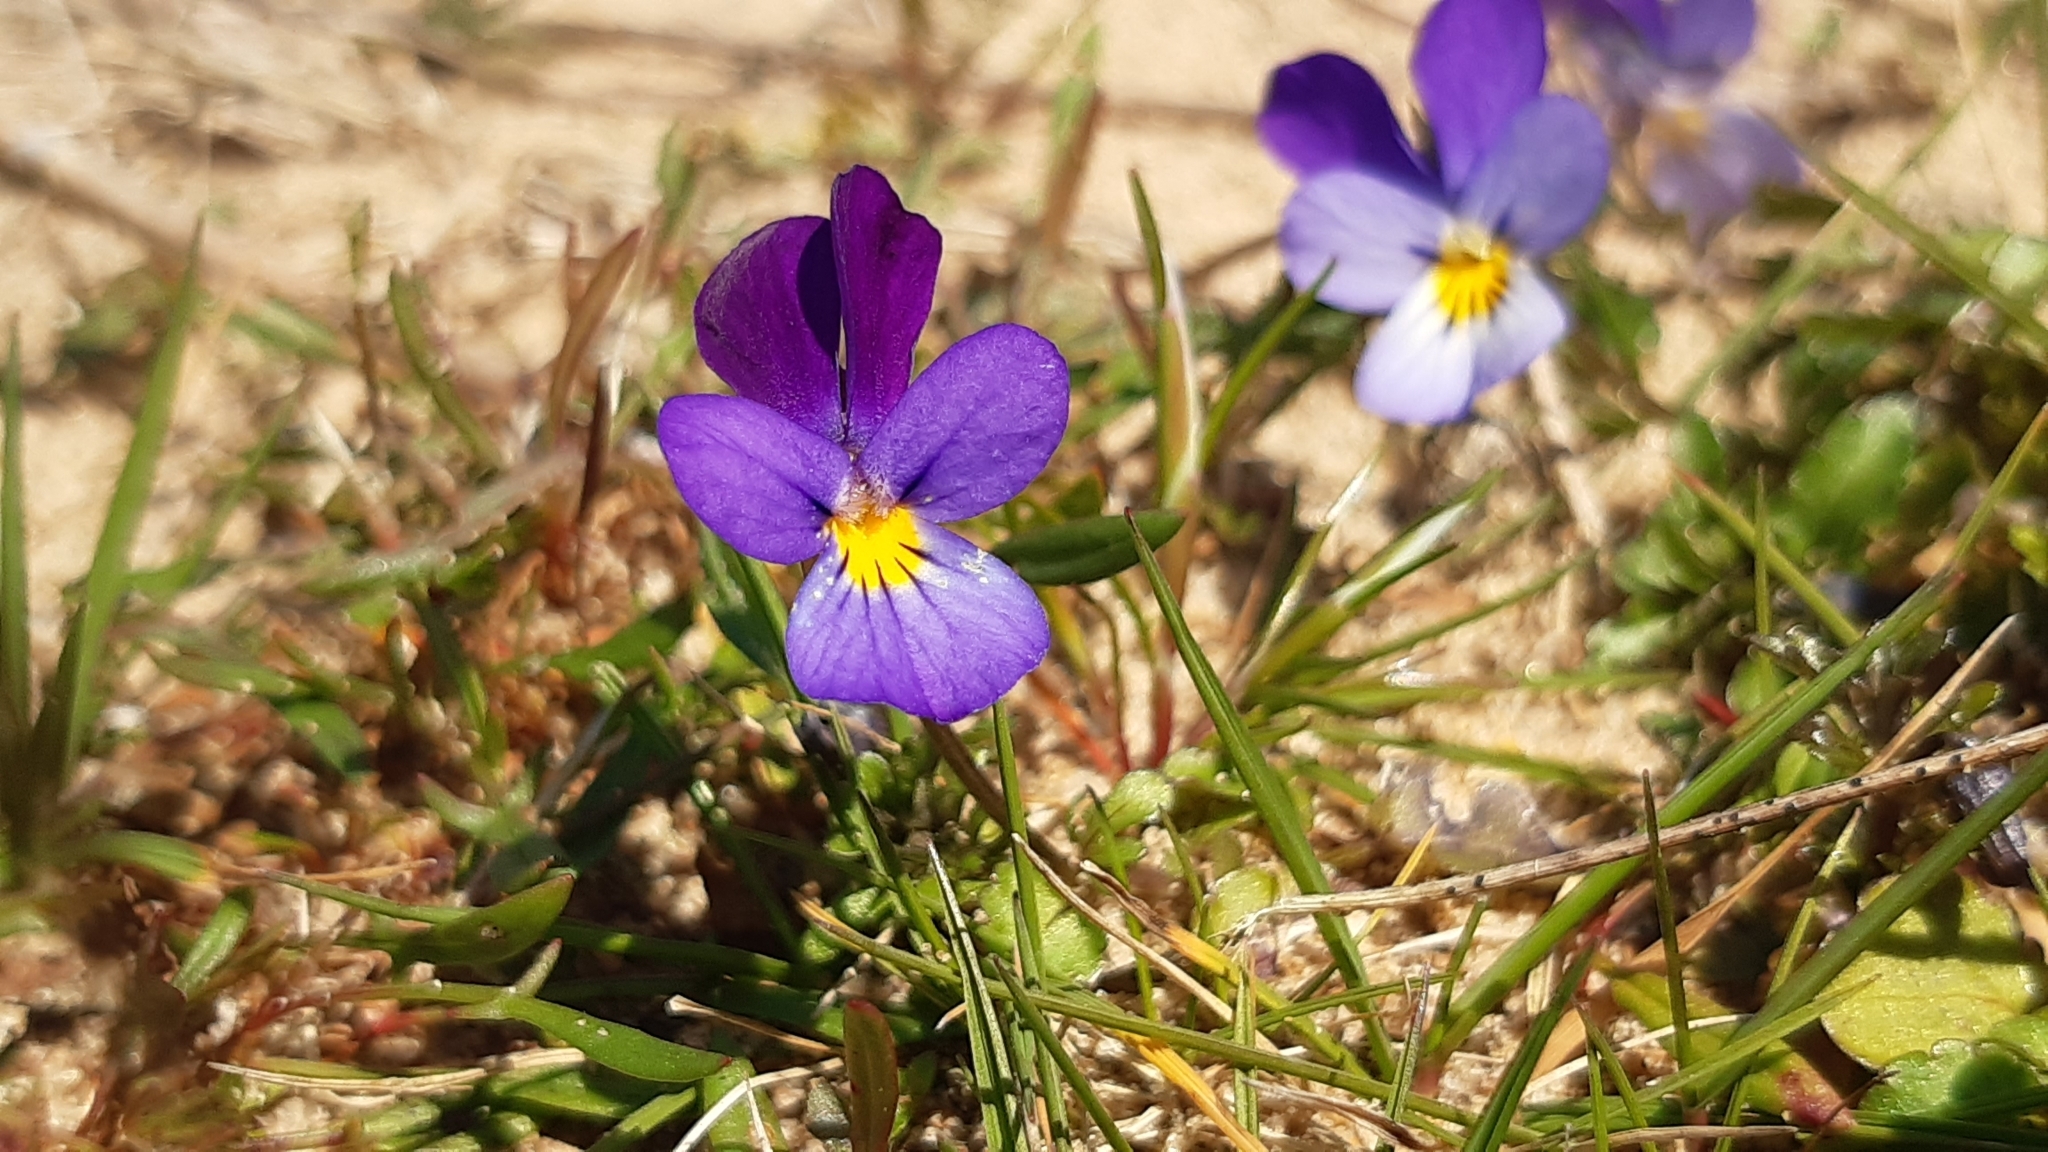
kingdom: Plantae
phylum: Tracheophyta
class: Magnoliopsida
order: Malpighiales
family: Violaceae
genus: Viola
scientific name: Viola tricolor
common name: Pansy
